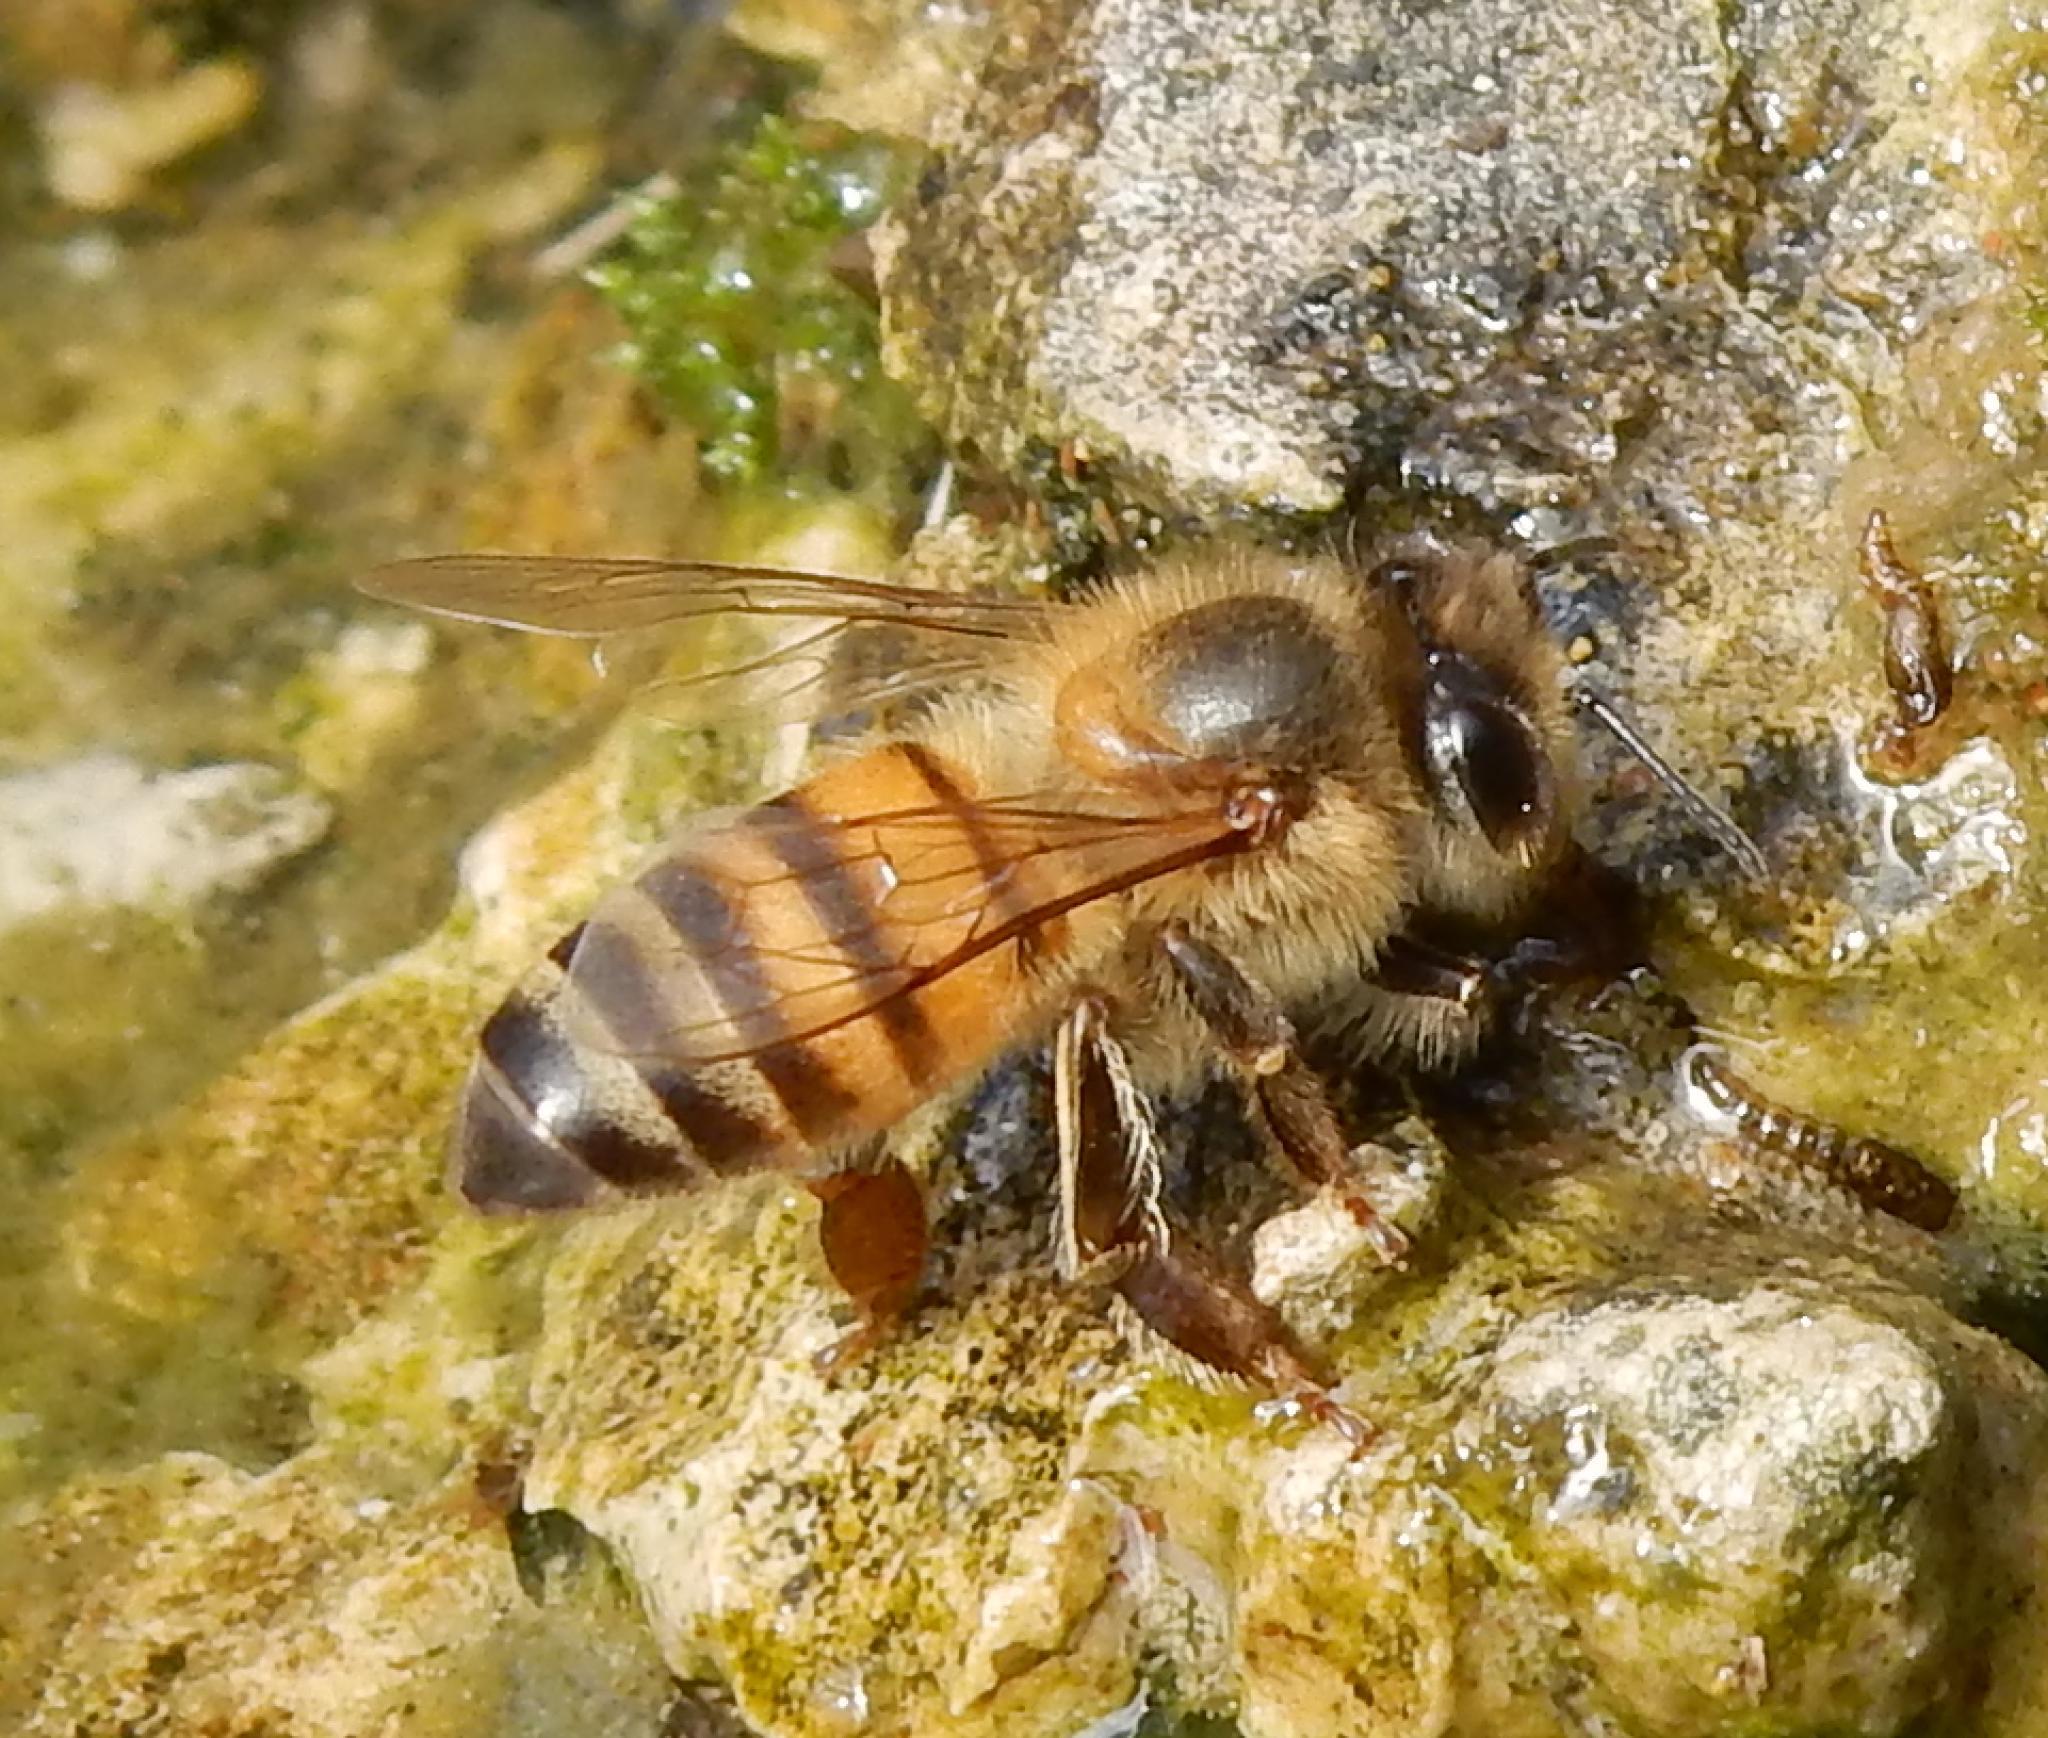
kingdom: Animalia
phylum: Arthropoda
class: Insecta
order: Hymenoptera
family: Apidae
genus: Apis
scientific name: Apis mellifera
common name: Honey bee
